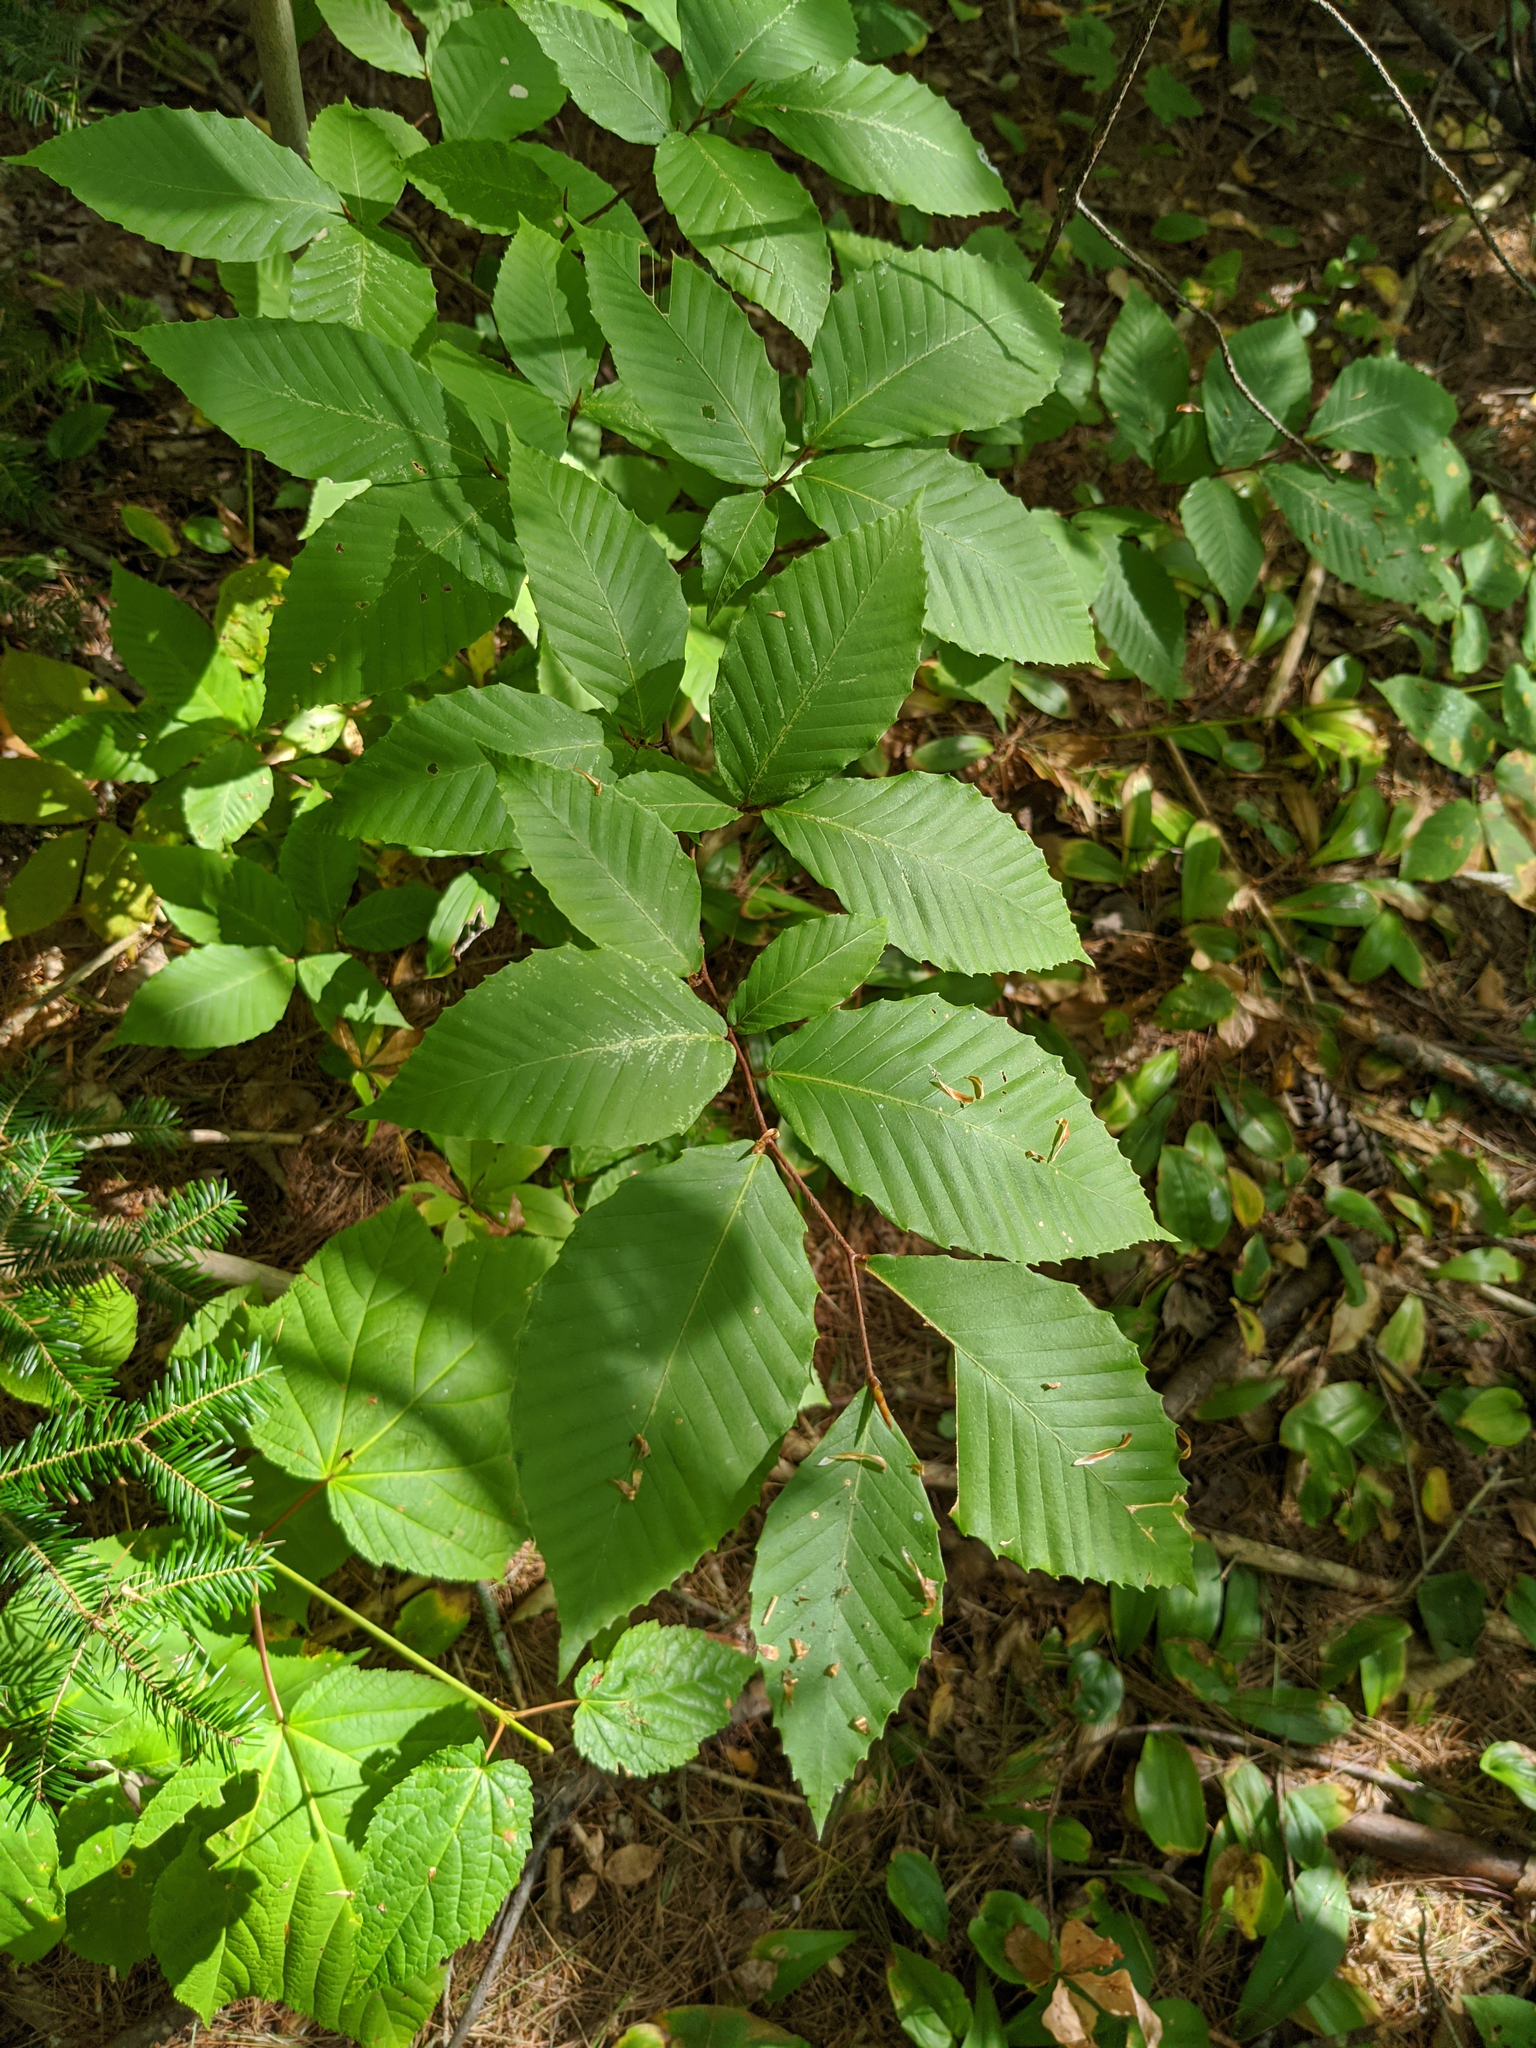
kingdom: Plantae
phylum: Tracheophyta
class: Magnoliopsida
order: Fagales
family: Fagaceae
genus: Fagus
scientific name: Fagus grandifolia
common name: American beech
